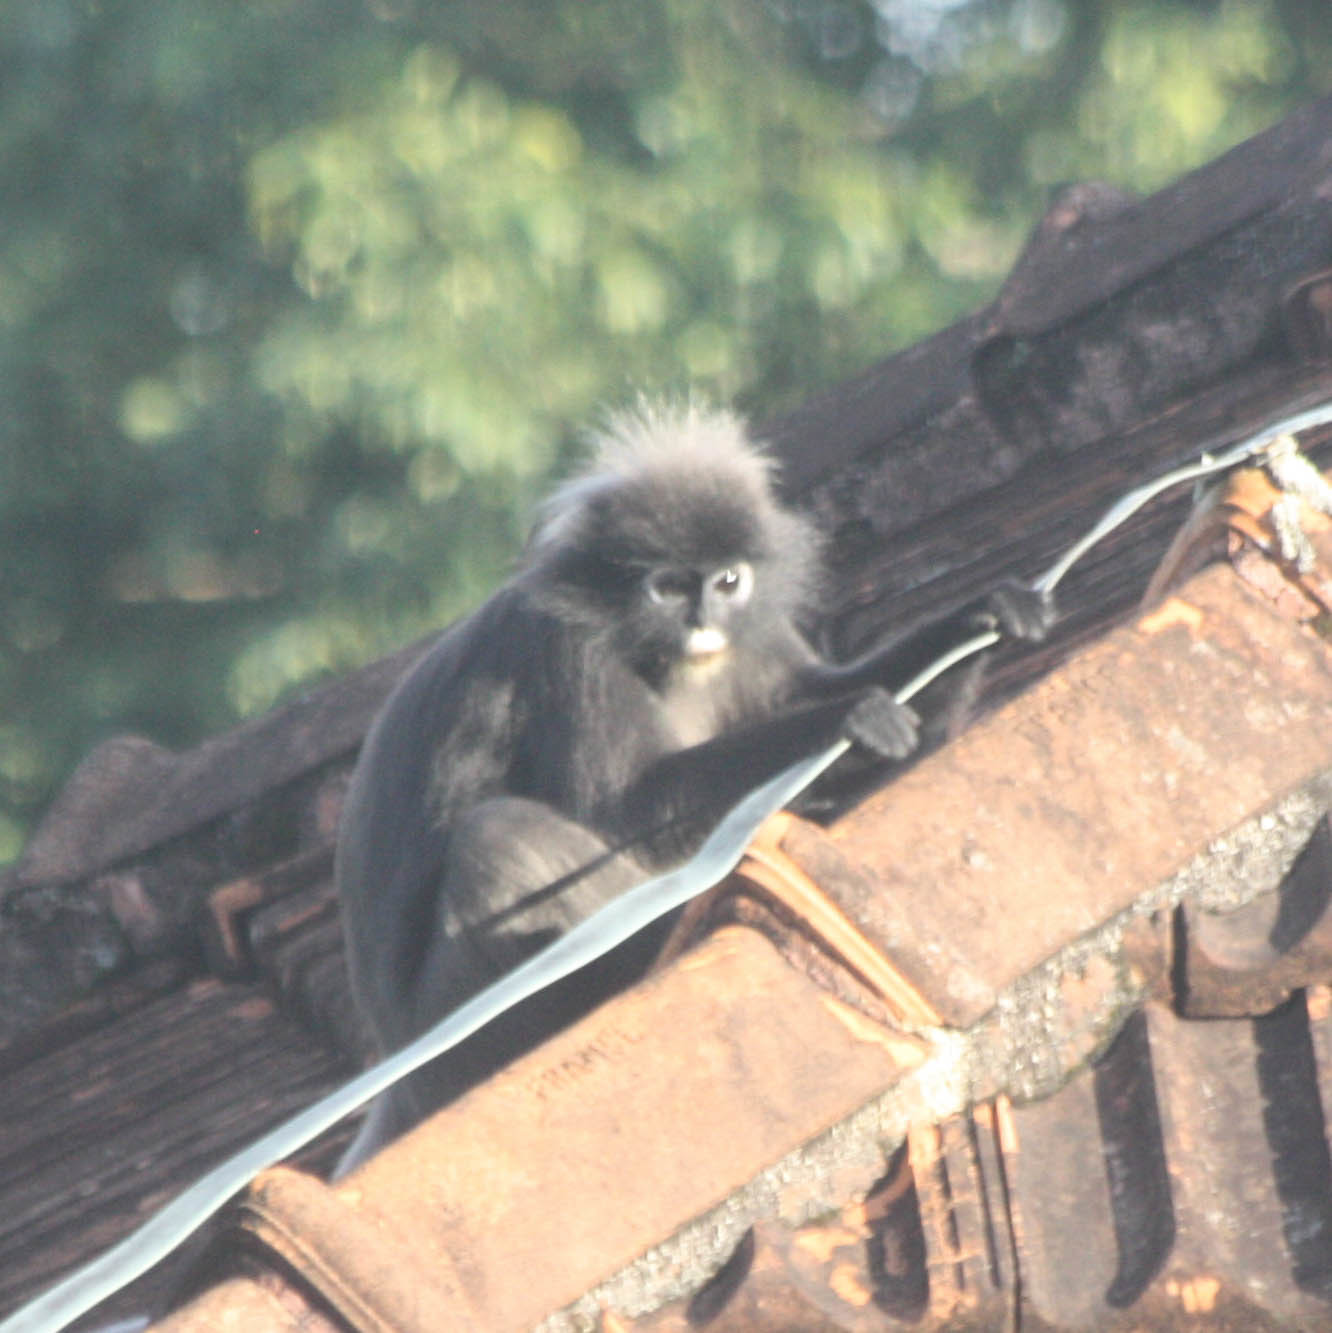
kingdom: Animalia
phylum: Chordata
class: Mammalia
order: Primates
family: Cercopithecidae
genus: Trachypithecus
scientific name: Trachypithecus obscurus
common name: Dusky leaf-monkey
